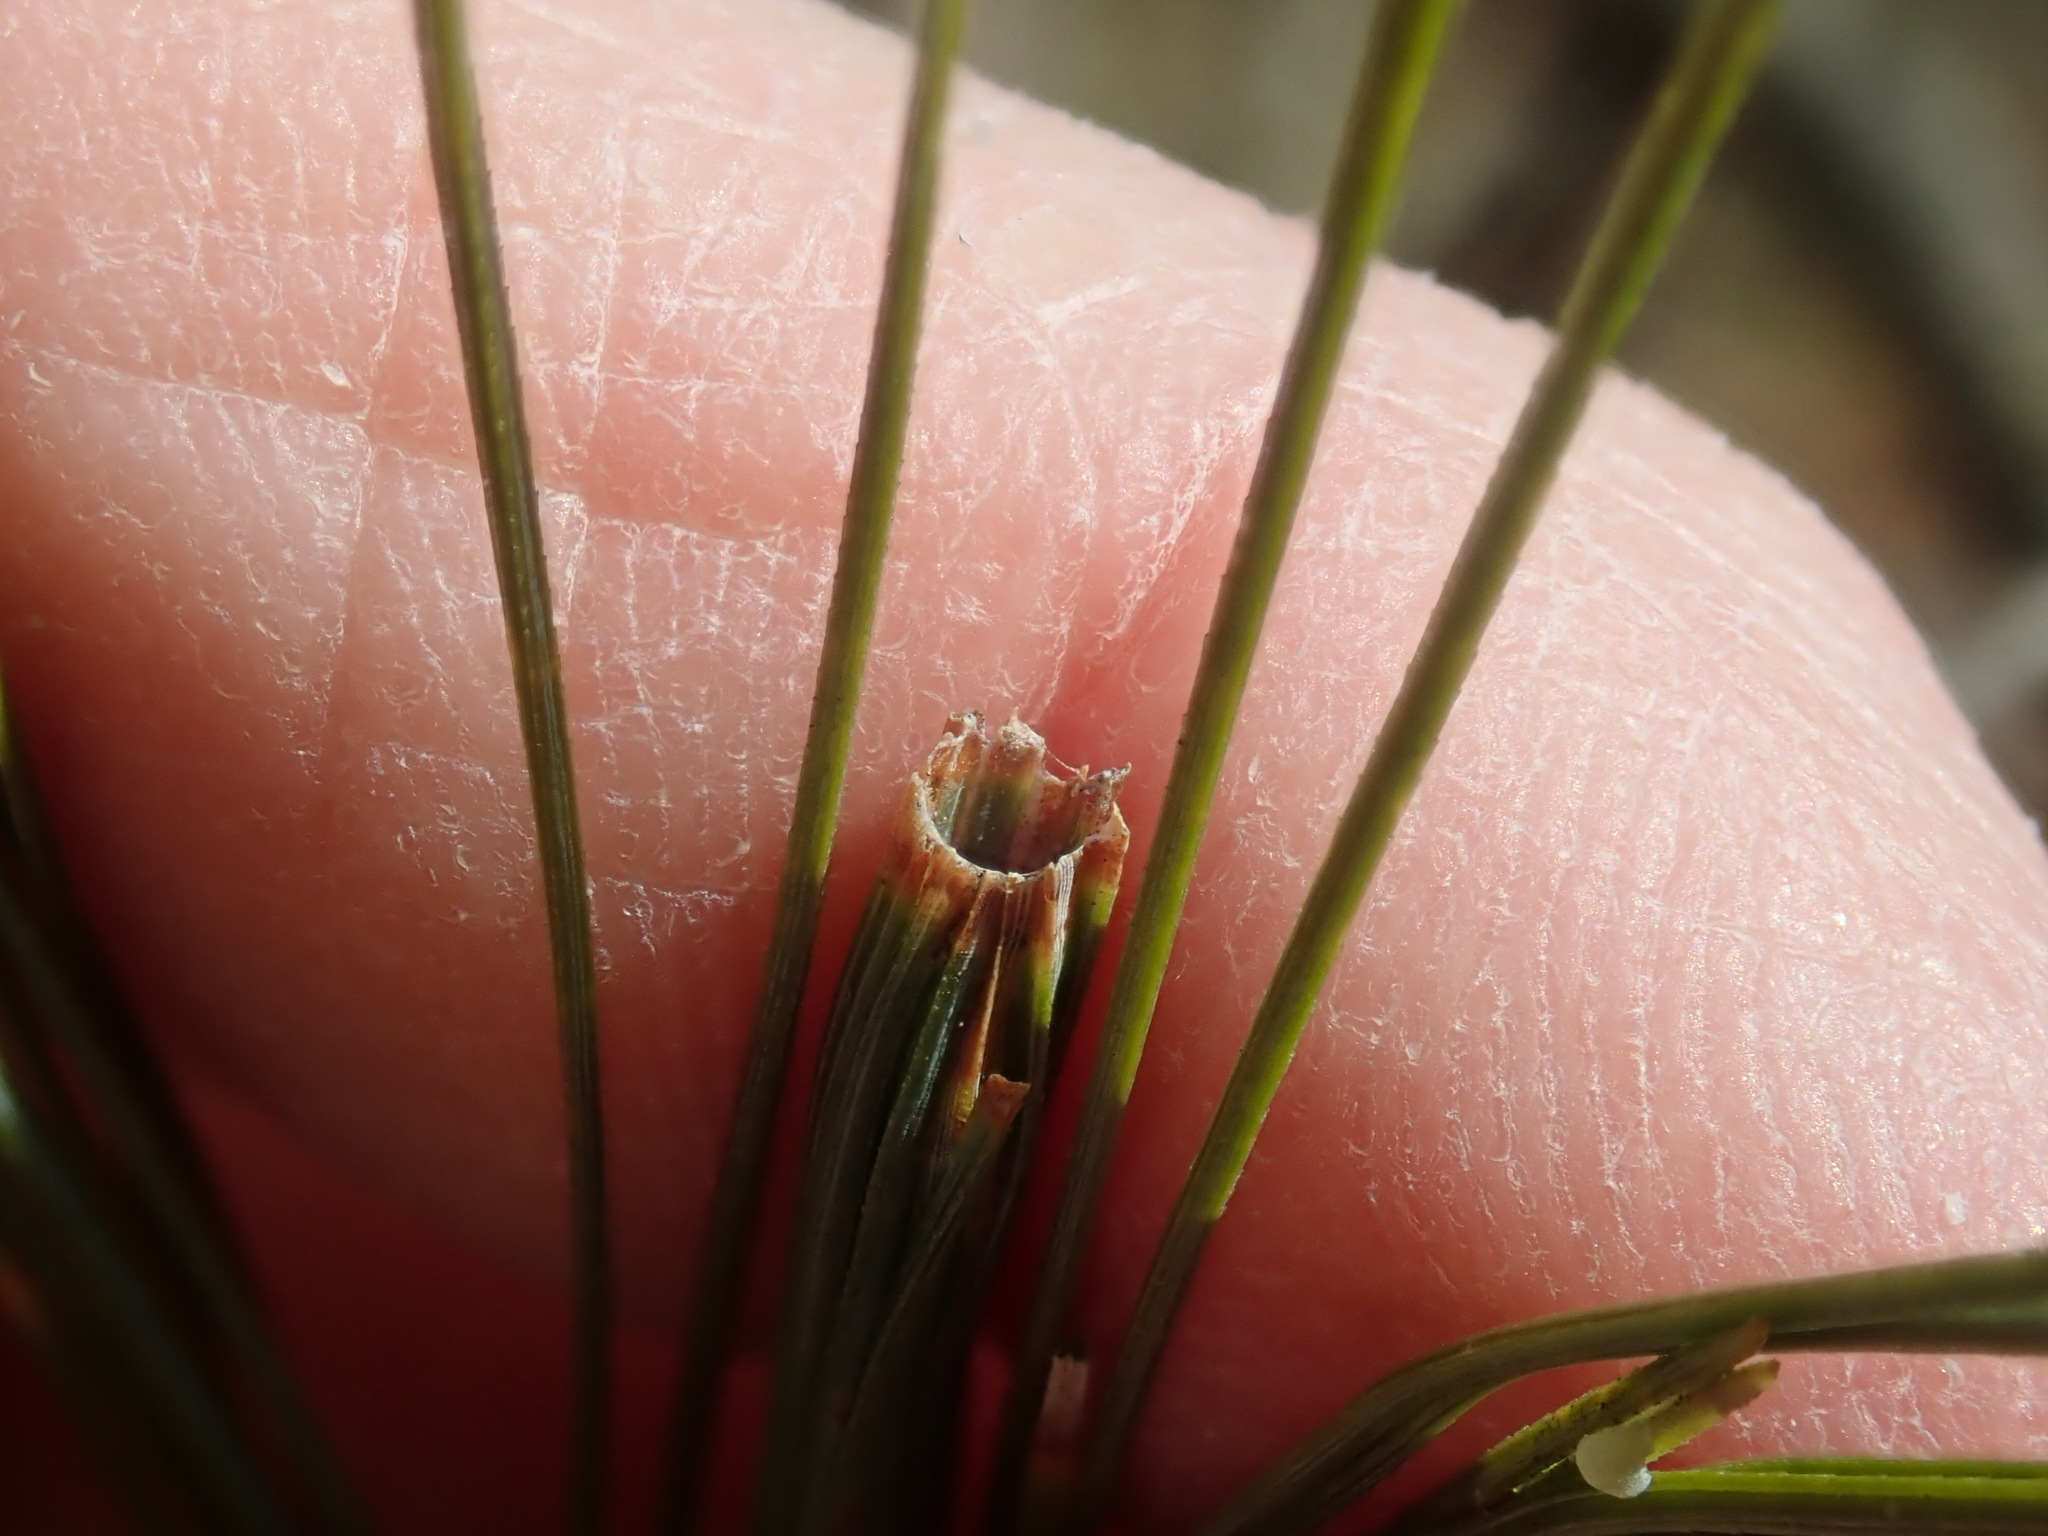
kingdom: Animalia
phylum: Arthropoda
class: Insecta
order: Lepidoptera
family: Tortricidae
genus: Argyrotaenia
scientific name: Argyrotaenia pinatubana
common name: Pine tube moth
